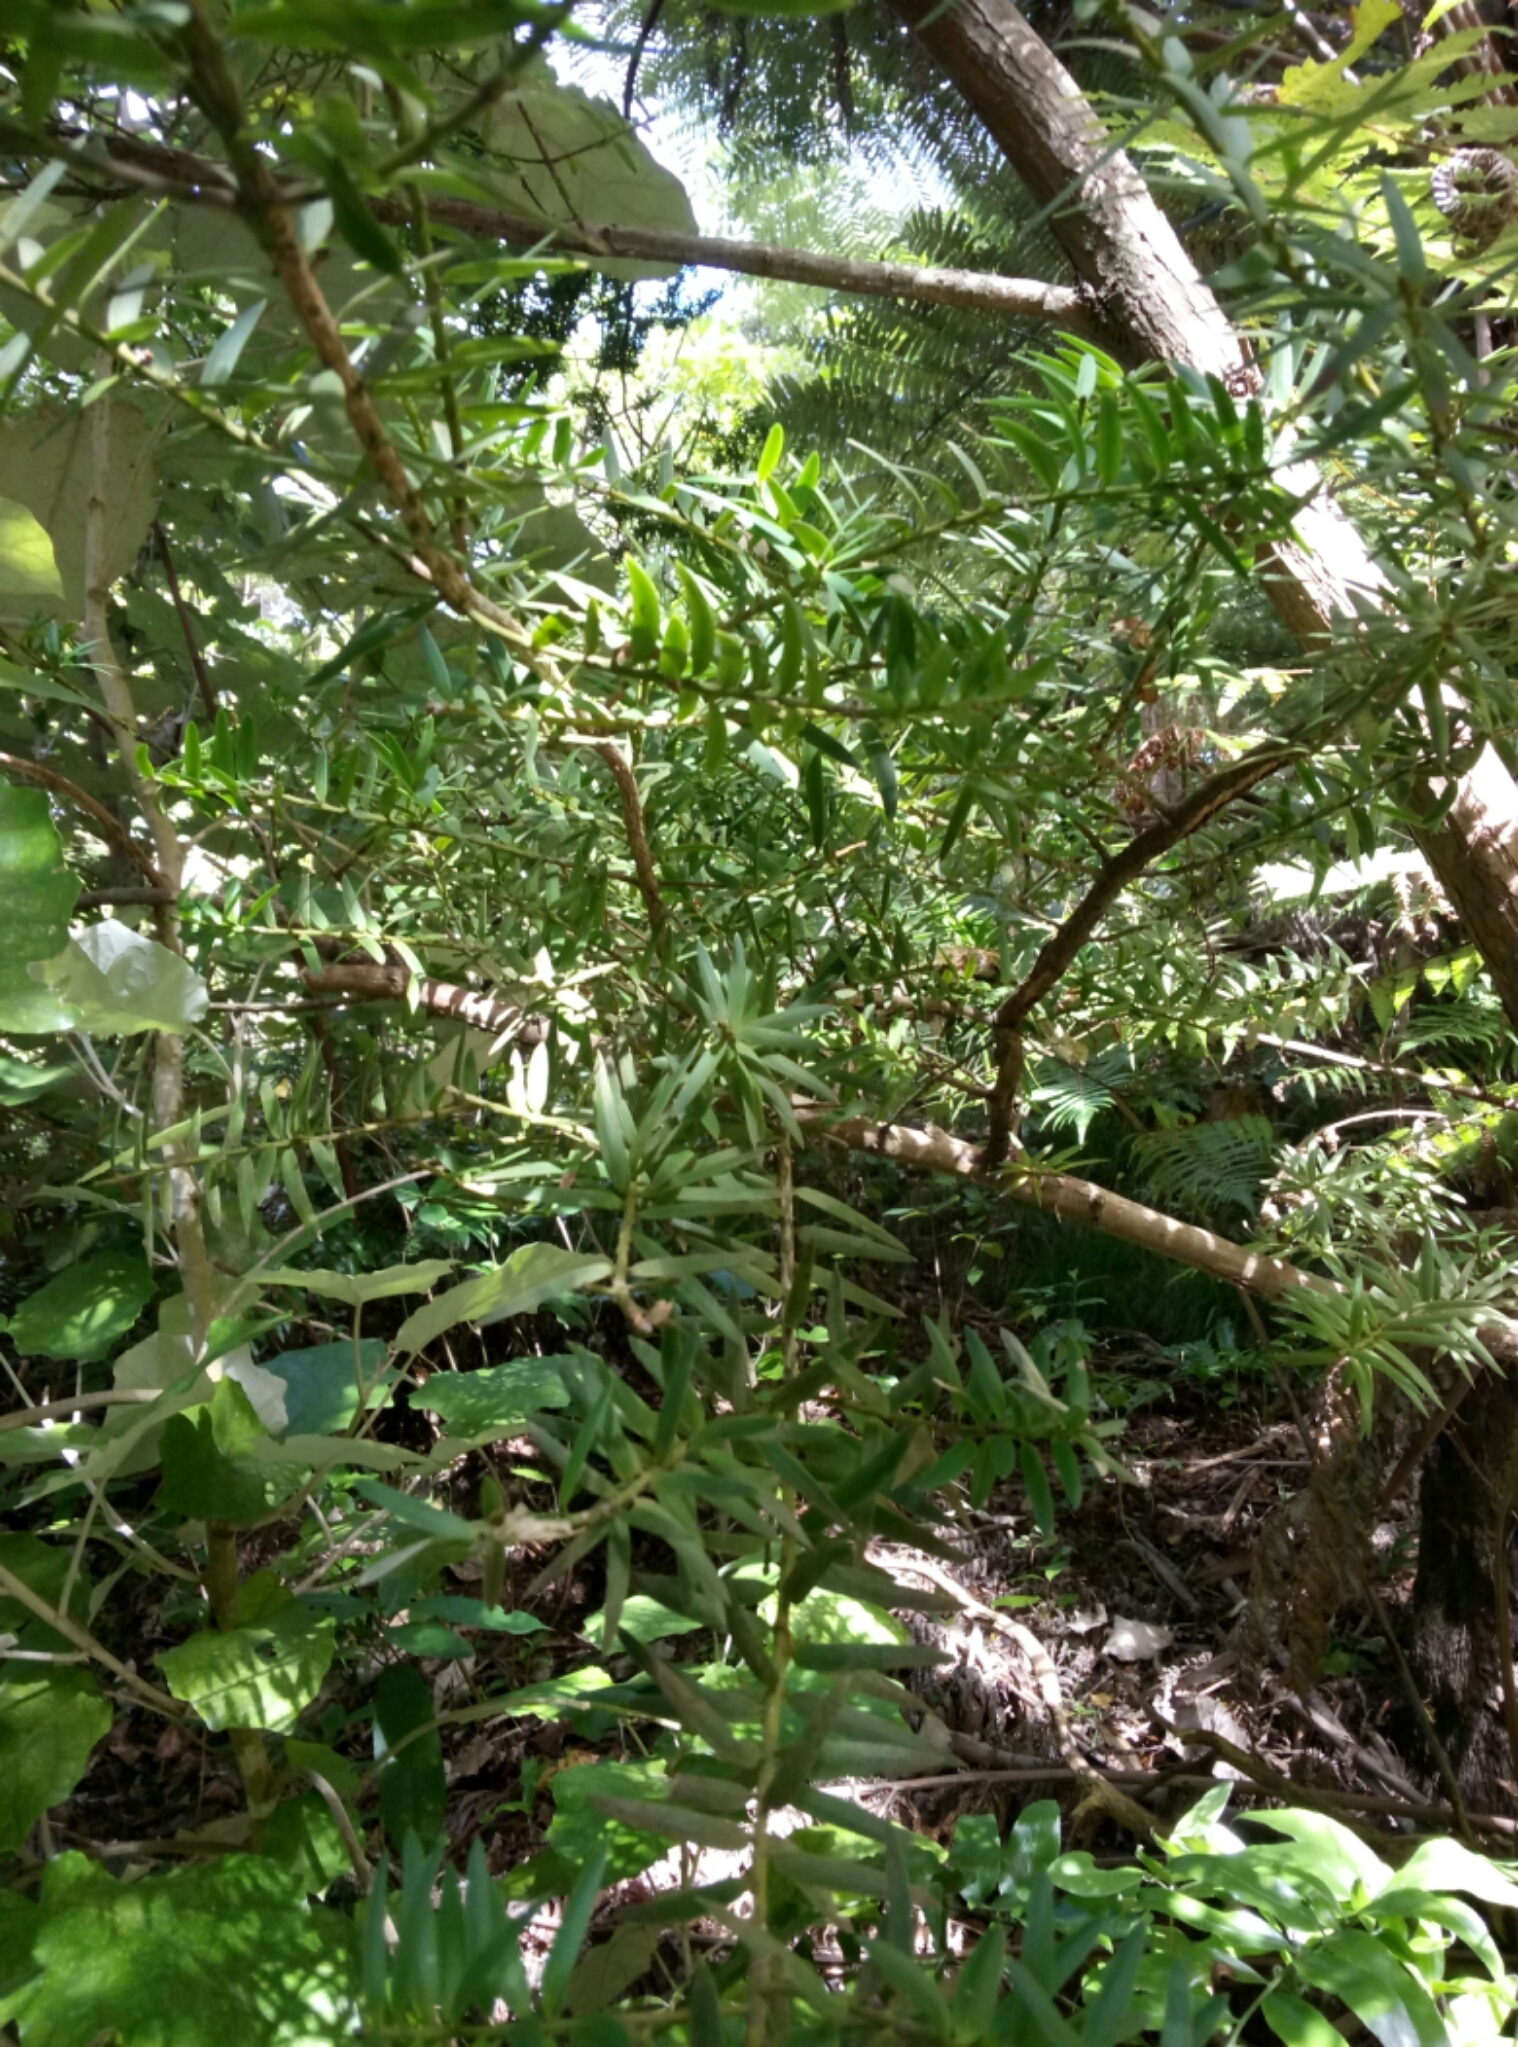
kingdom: Plantae
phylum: Tracheophyta
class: Pinopsida
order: Pinales
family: Podocarpaceae
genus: Podocarpus
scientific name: Podocarpus totara
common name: Totara
